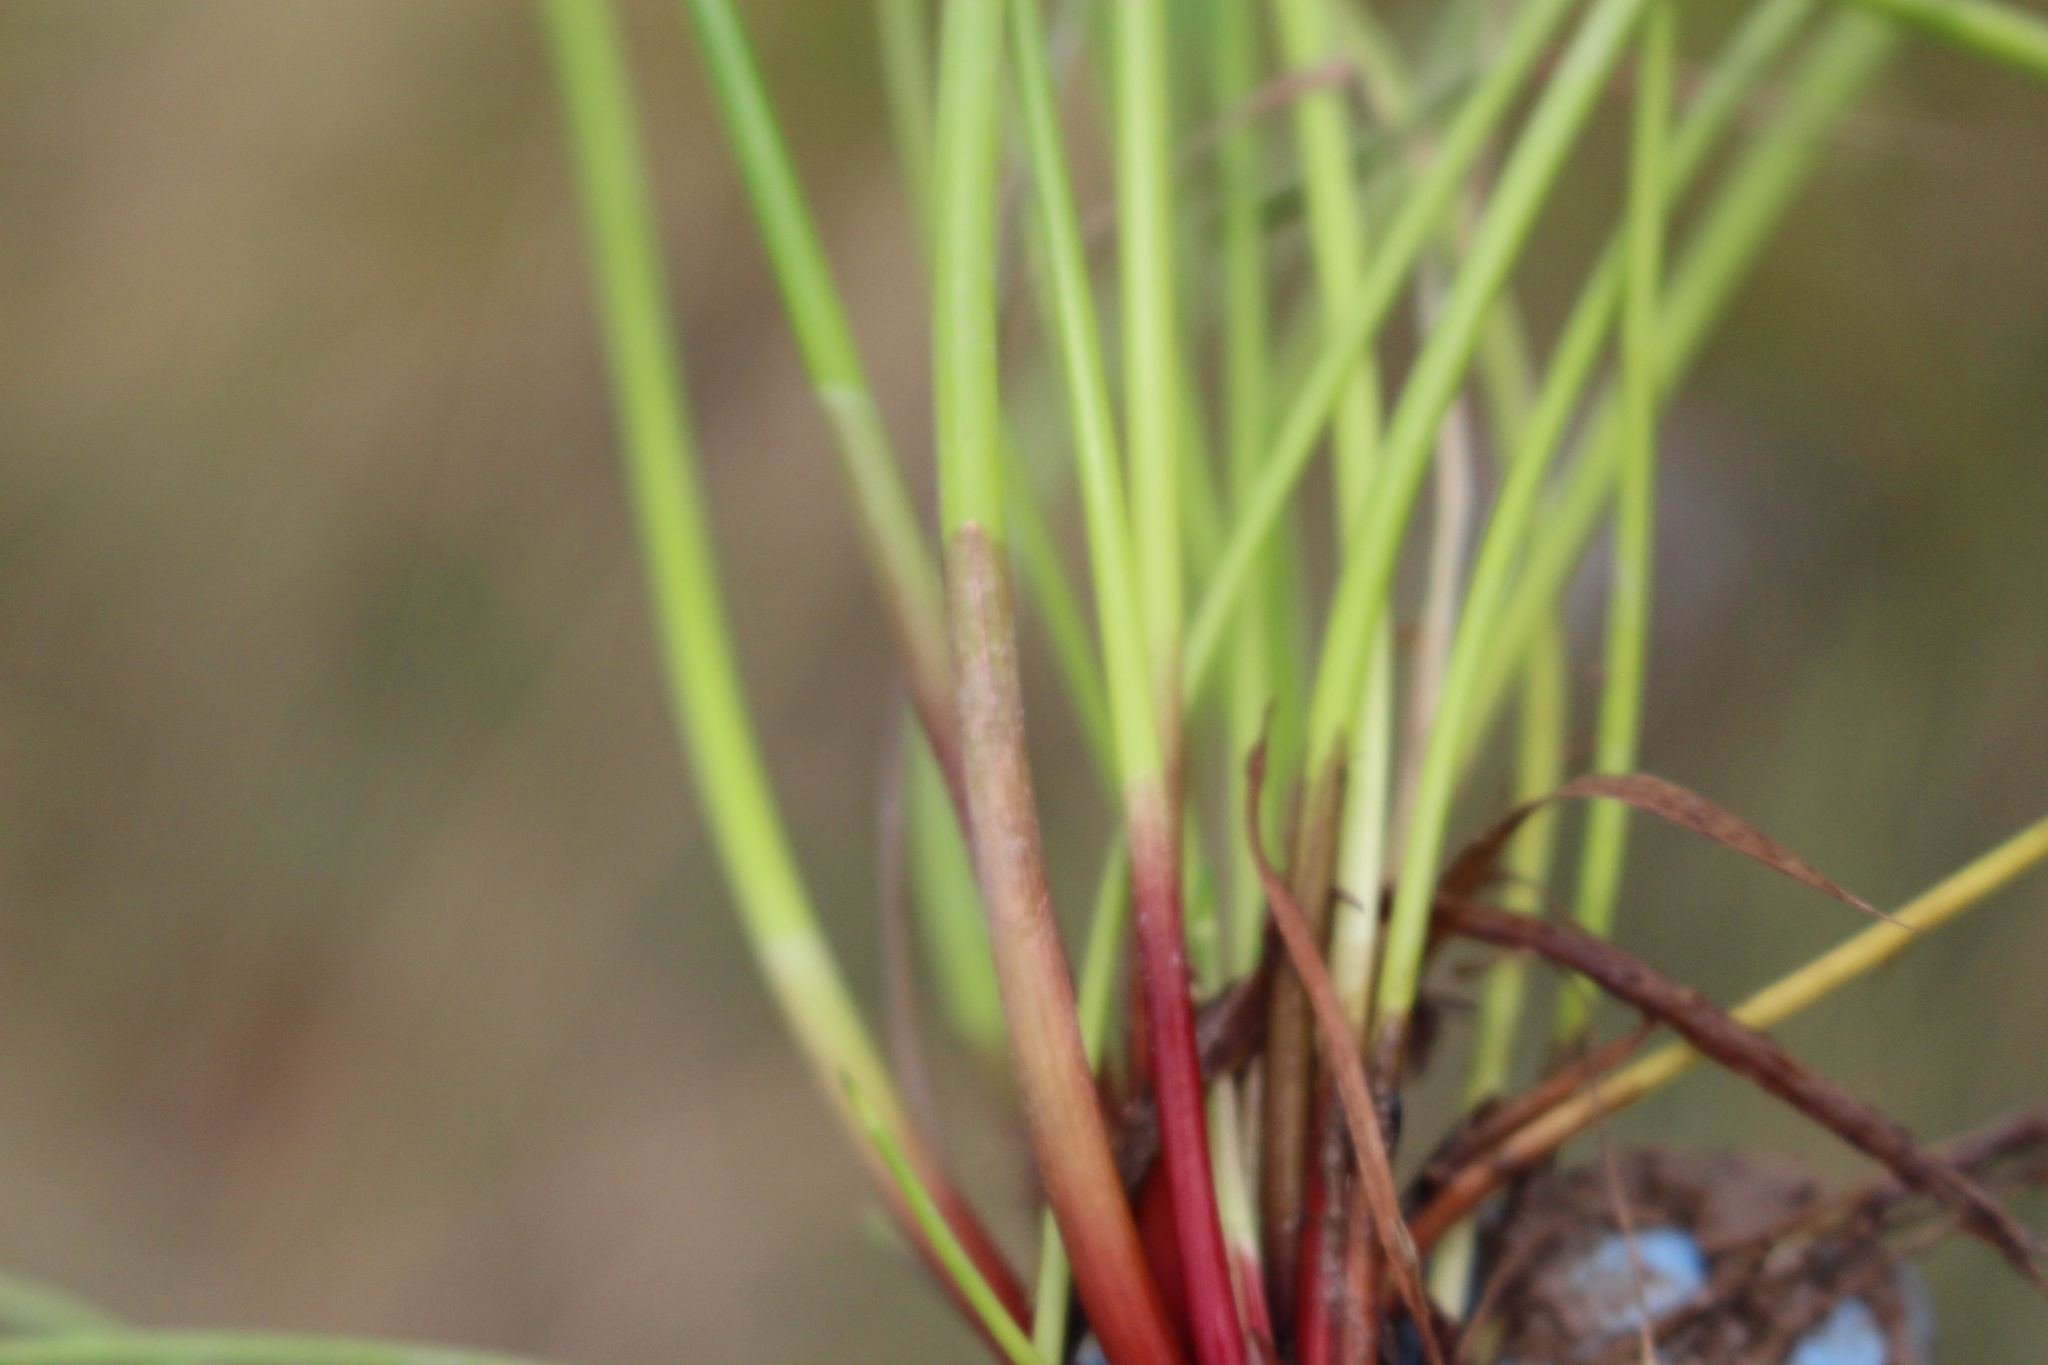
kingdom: Plantae
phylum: Tracheophyta
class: Liliopsida
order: Poales
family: Cyperaceae
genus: Isolepis
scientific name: Isolepis prolifera
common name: Proliferating bulrush
